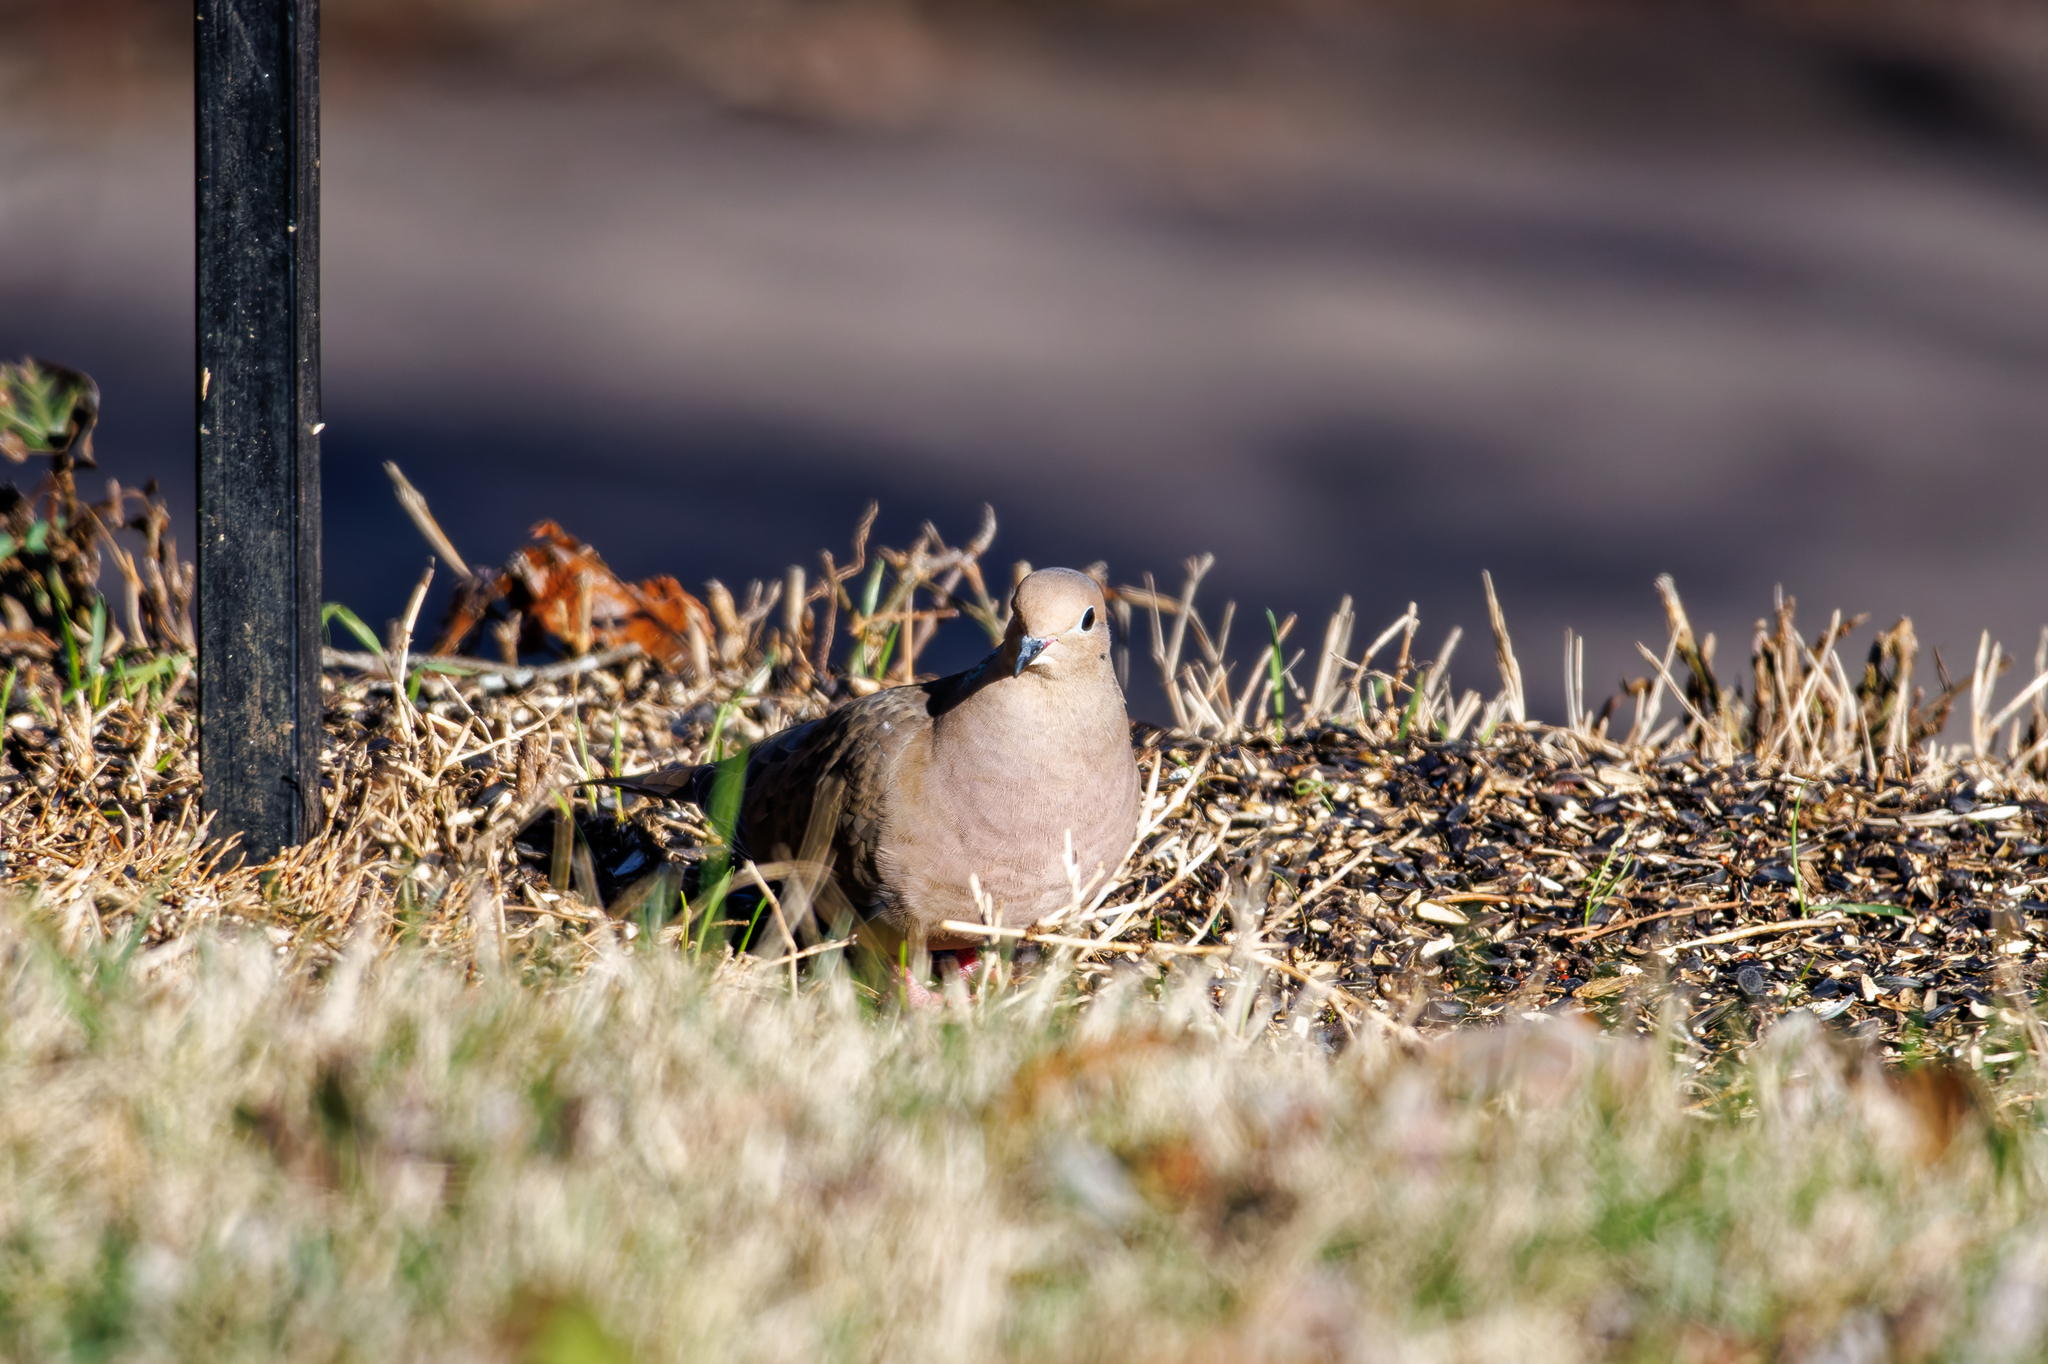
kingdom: Animalia
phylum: Chordata
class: Aves
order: Columbiformes
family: Columbidae
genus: Zenaida
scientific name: Zenaida macroura
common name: Mourning dove
